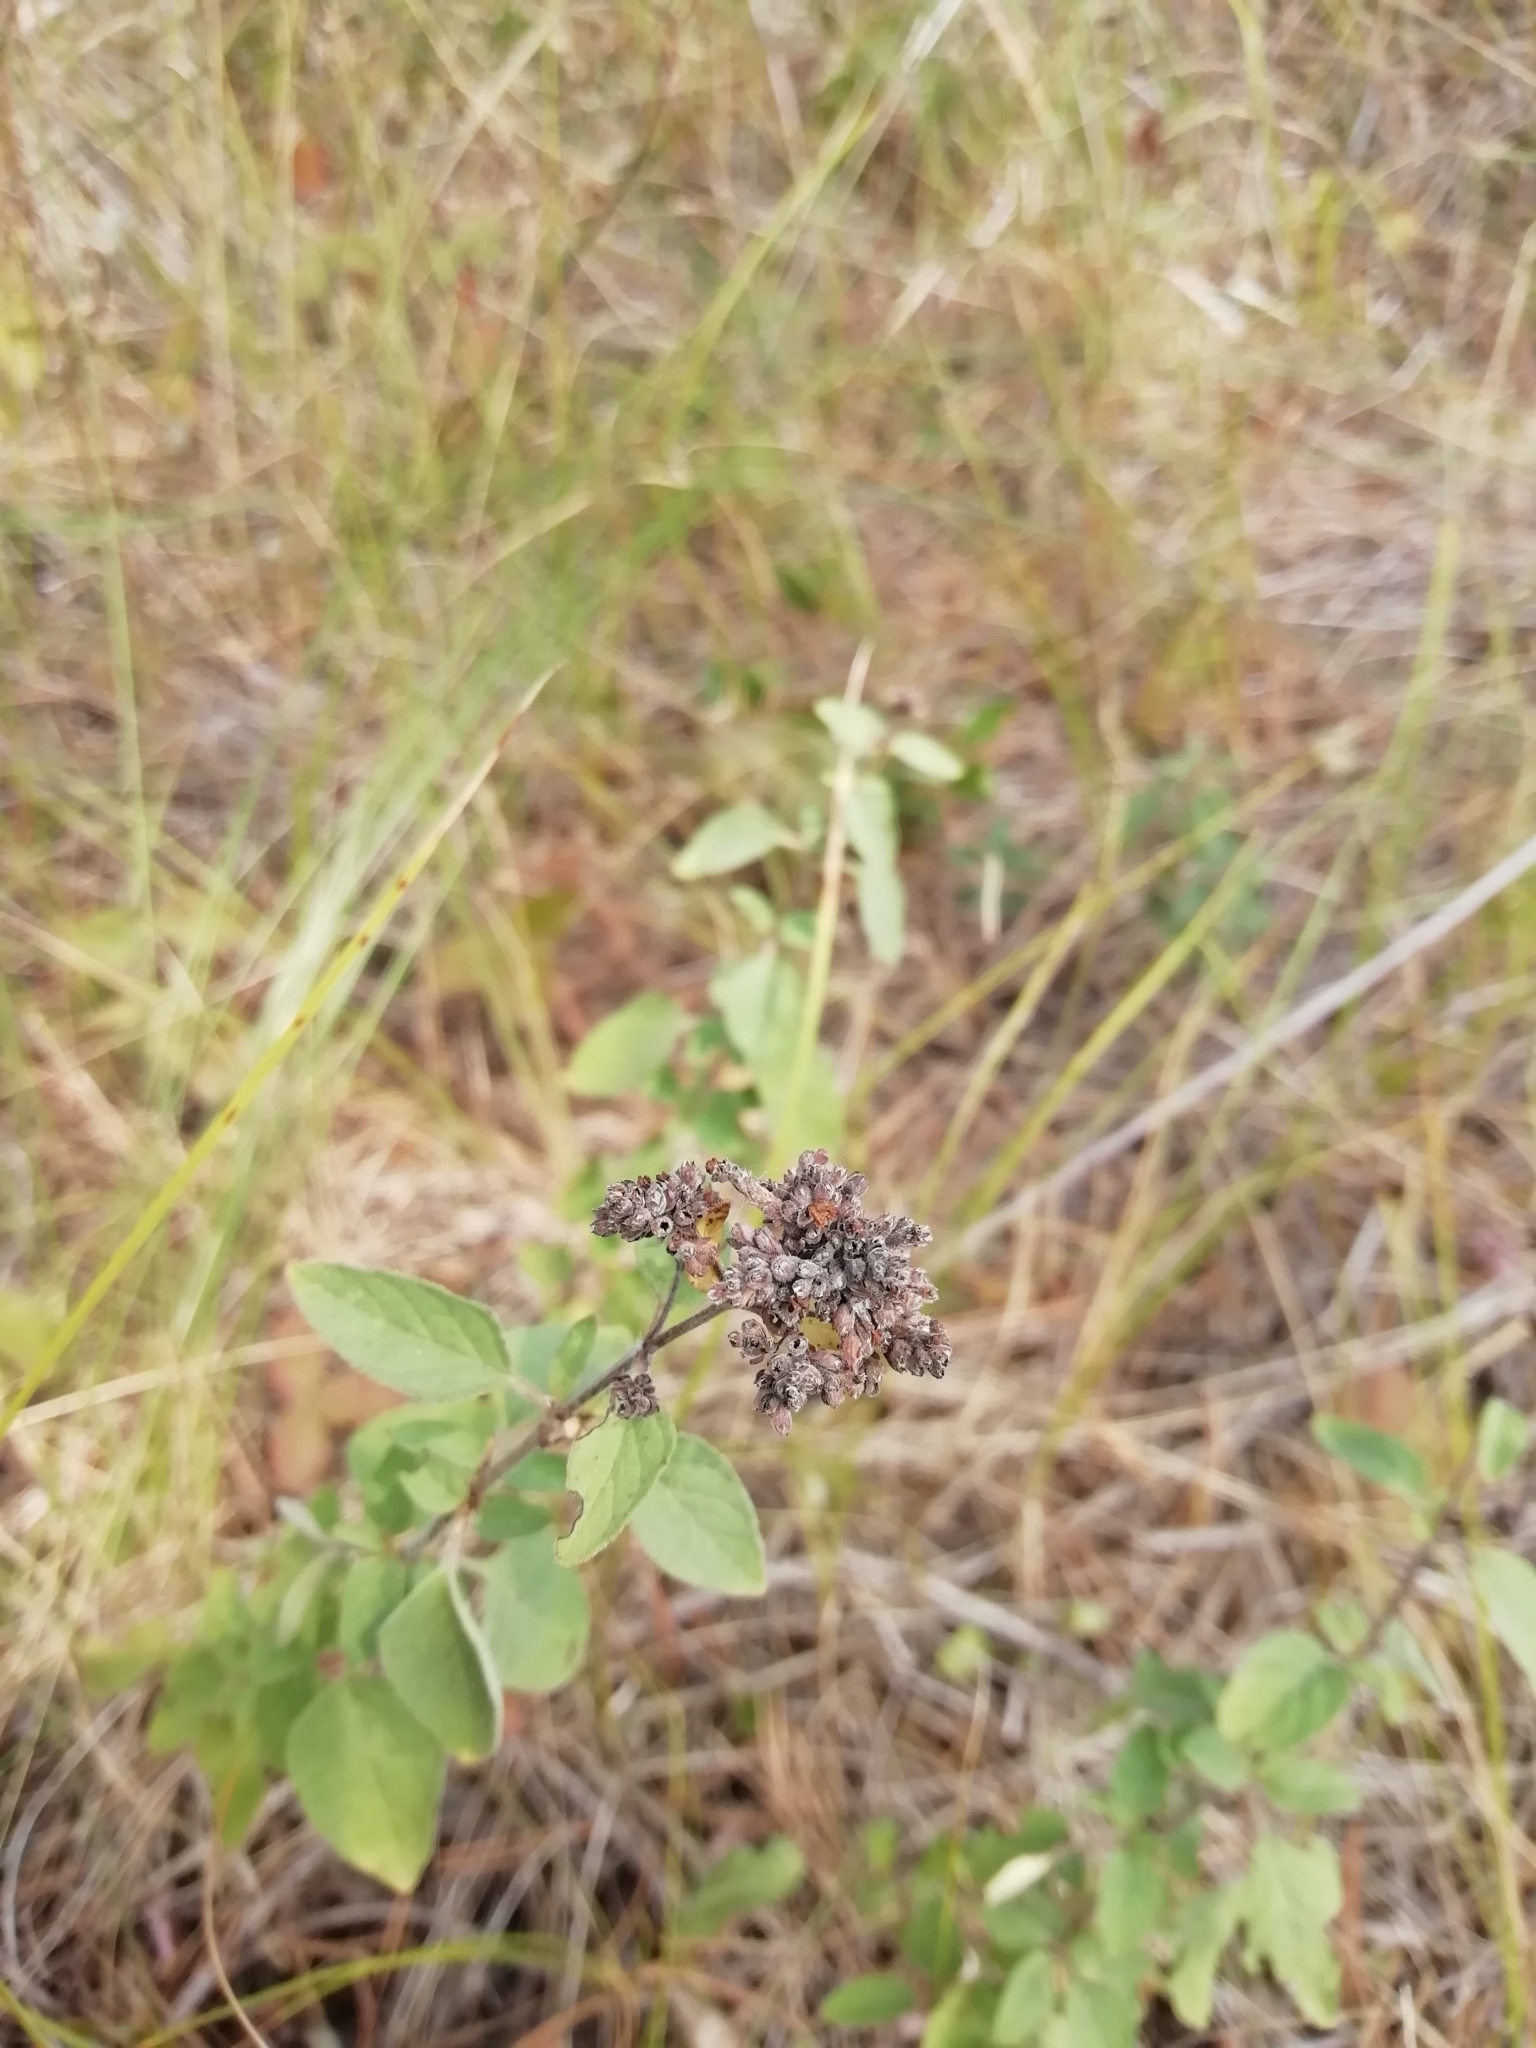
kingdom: Plantae
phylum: Tracheophyta
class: Magnoliopsida
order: Lamiales
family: Lamiaceae
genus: Origanum
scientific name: Origanum vulgare
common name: Wild marjoram
